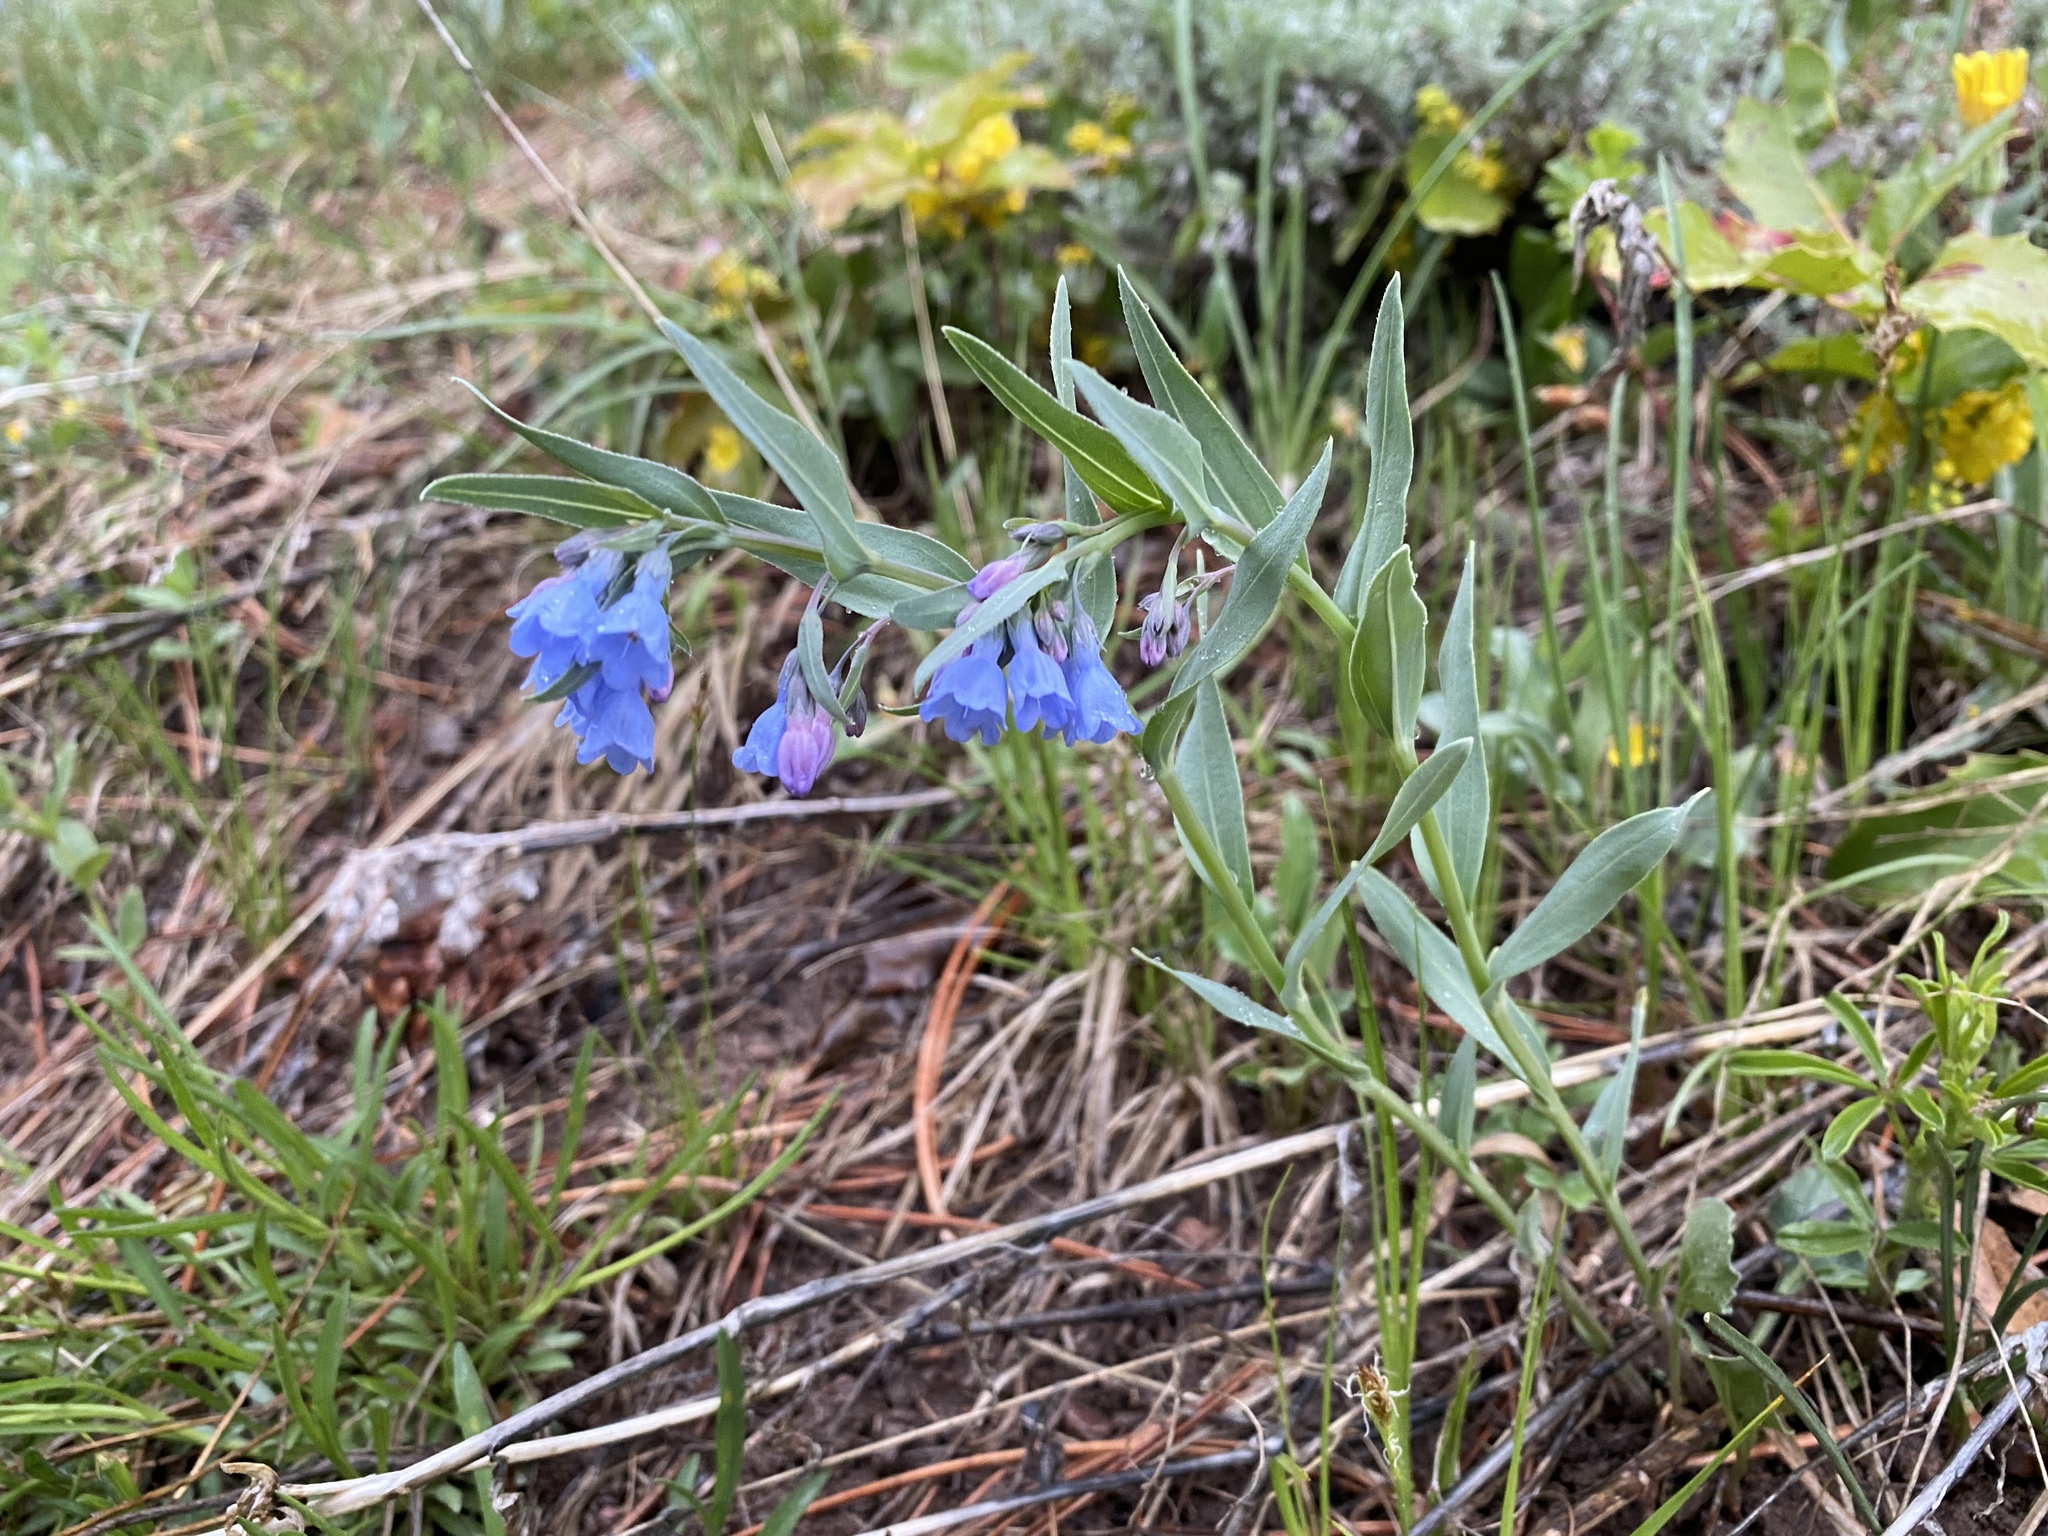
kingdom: Plantae
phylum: Tracheophyta
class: Magnoliopsida
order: Boraginales
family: Boraginaceae
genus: Mertensia
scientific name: Mertensia lanceolata
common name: Lance-leaved bluebells
